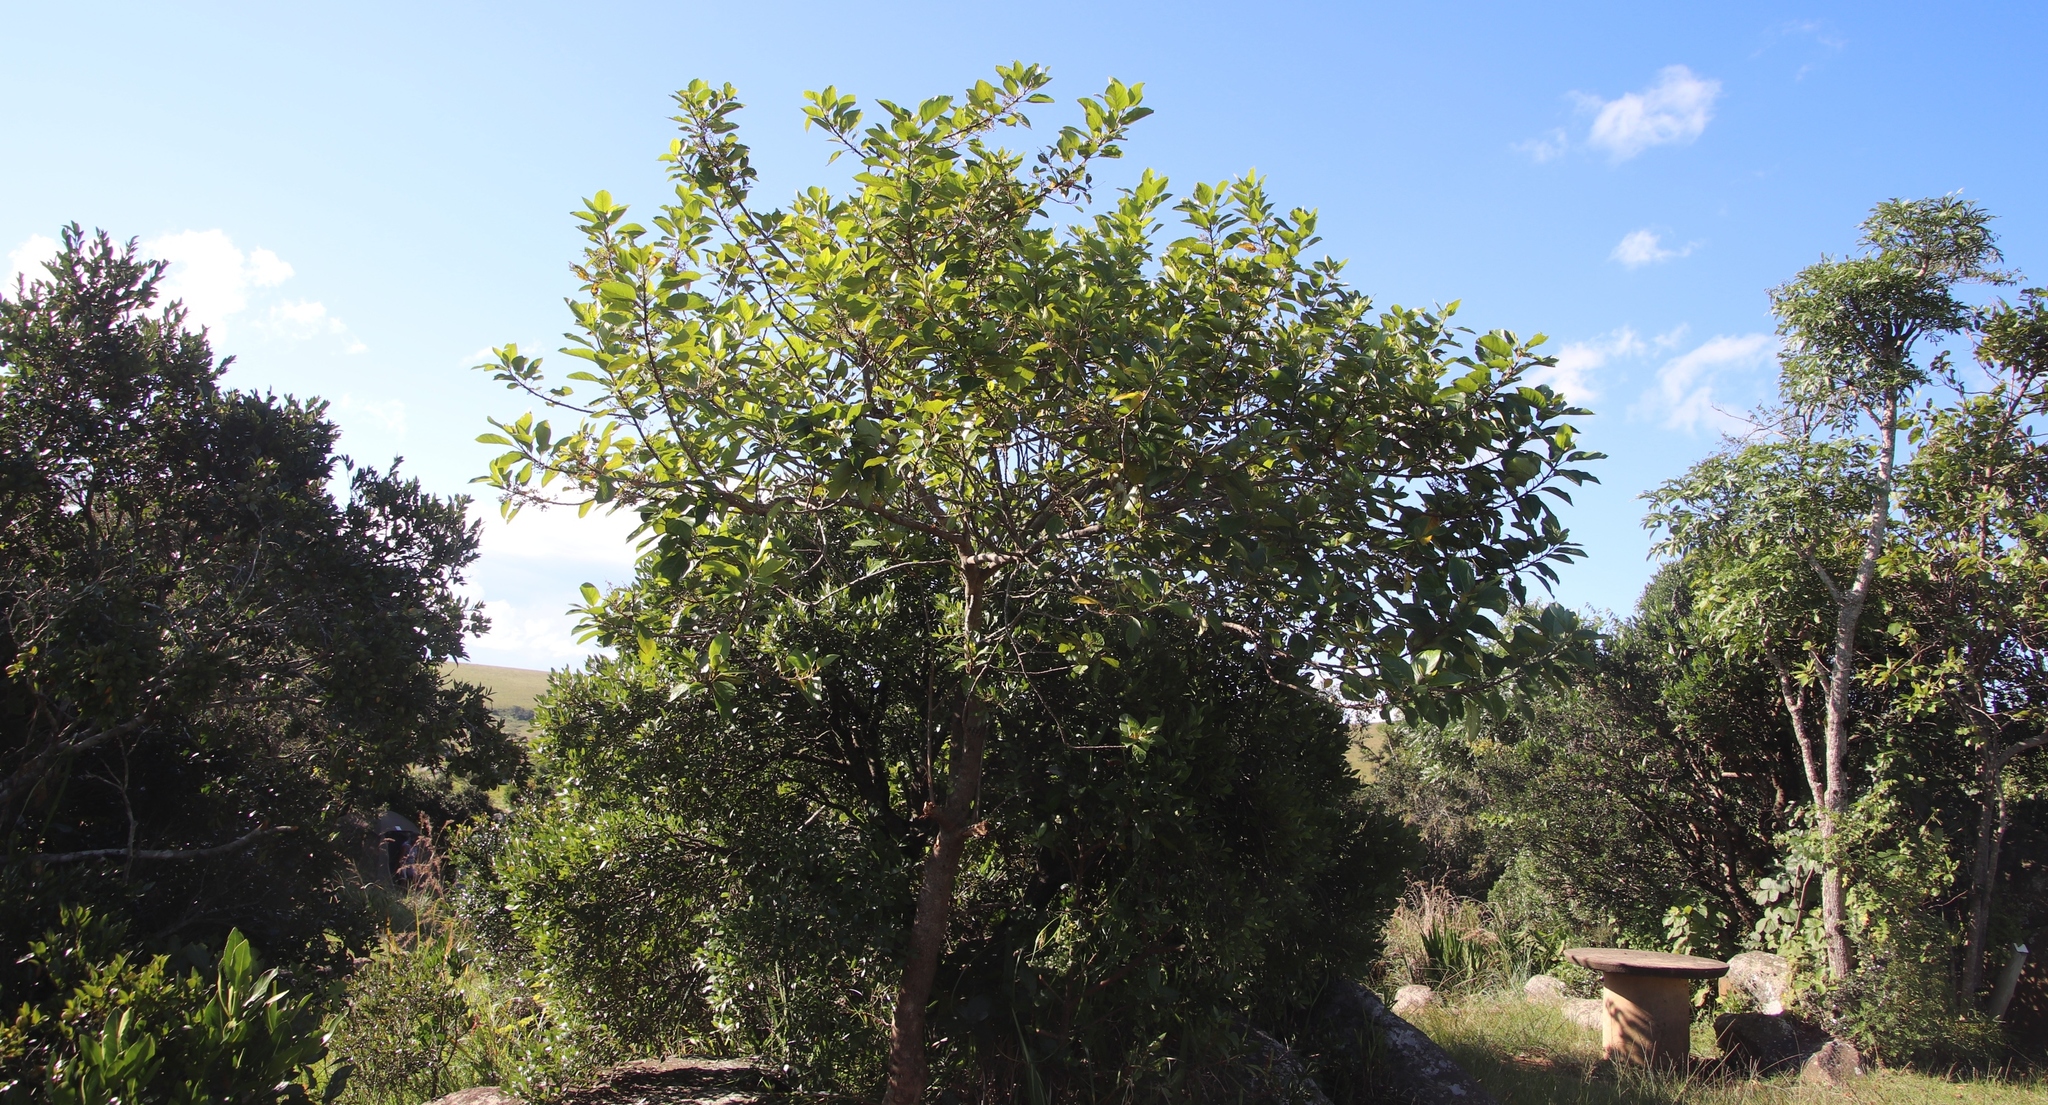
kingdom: Plantae
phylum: Tracheophyta
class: Magnoliopsida
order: Ericales
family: Primulaceae
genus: Maesa
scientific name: Maesa lanceolata
